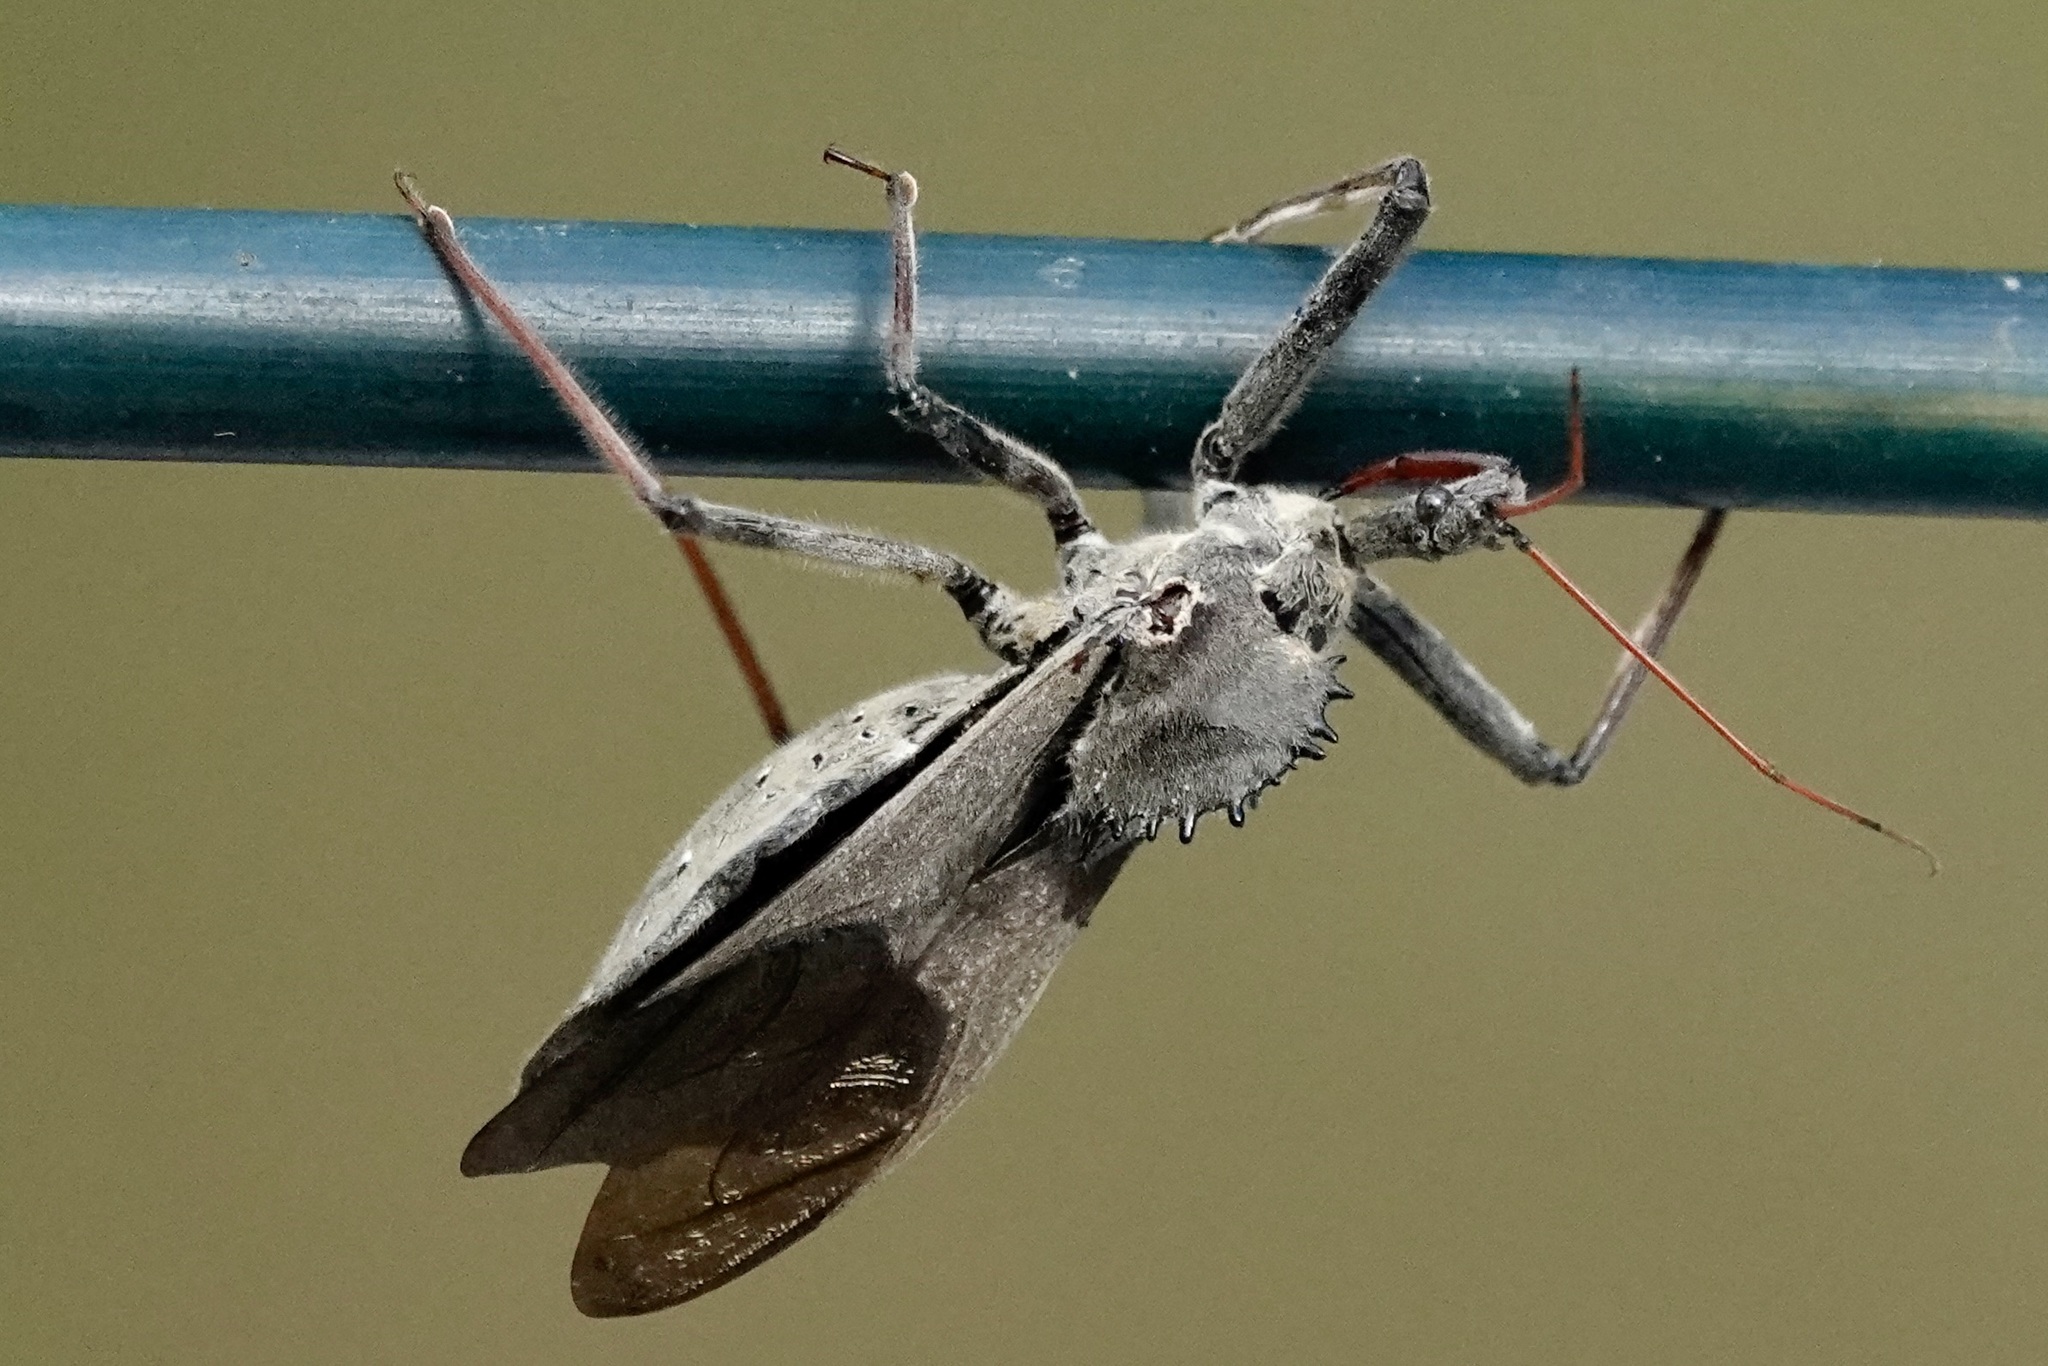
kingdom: Animalia
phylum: Arthropoda
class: Insecta
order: Hemiptera
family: Reduviidae
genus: Arilus
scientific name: Arilus cristatus
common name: North american wheel bug
